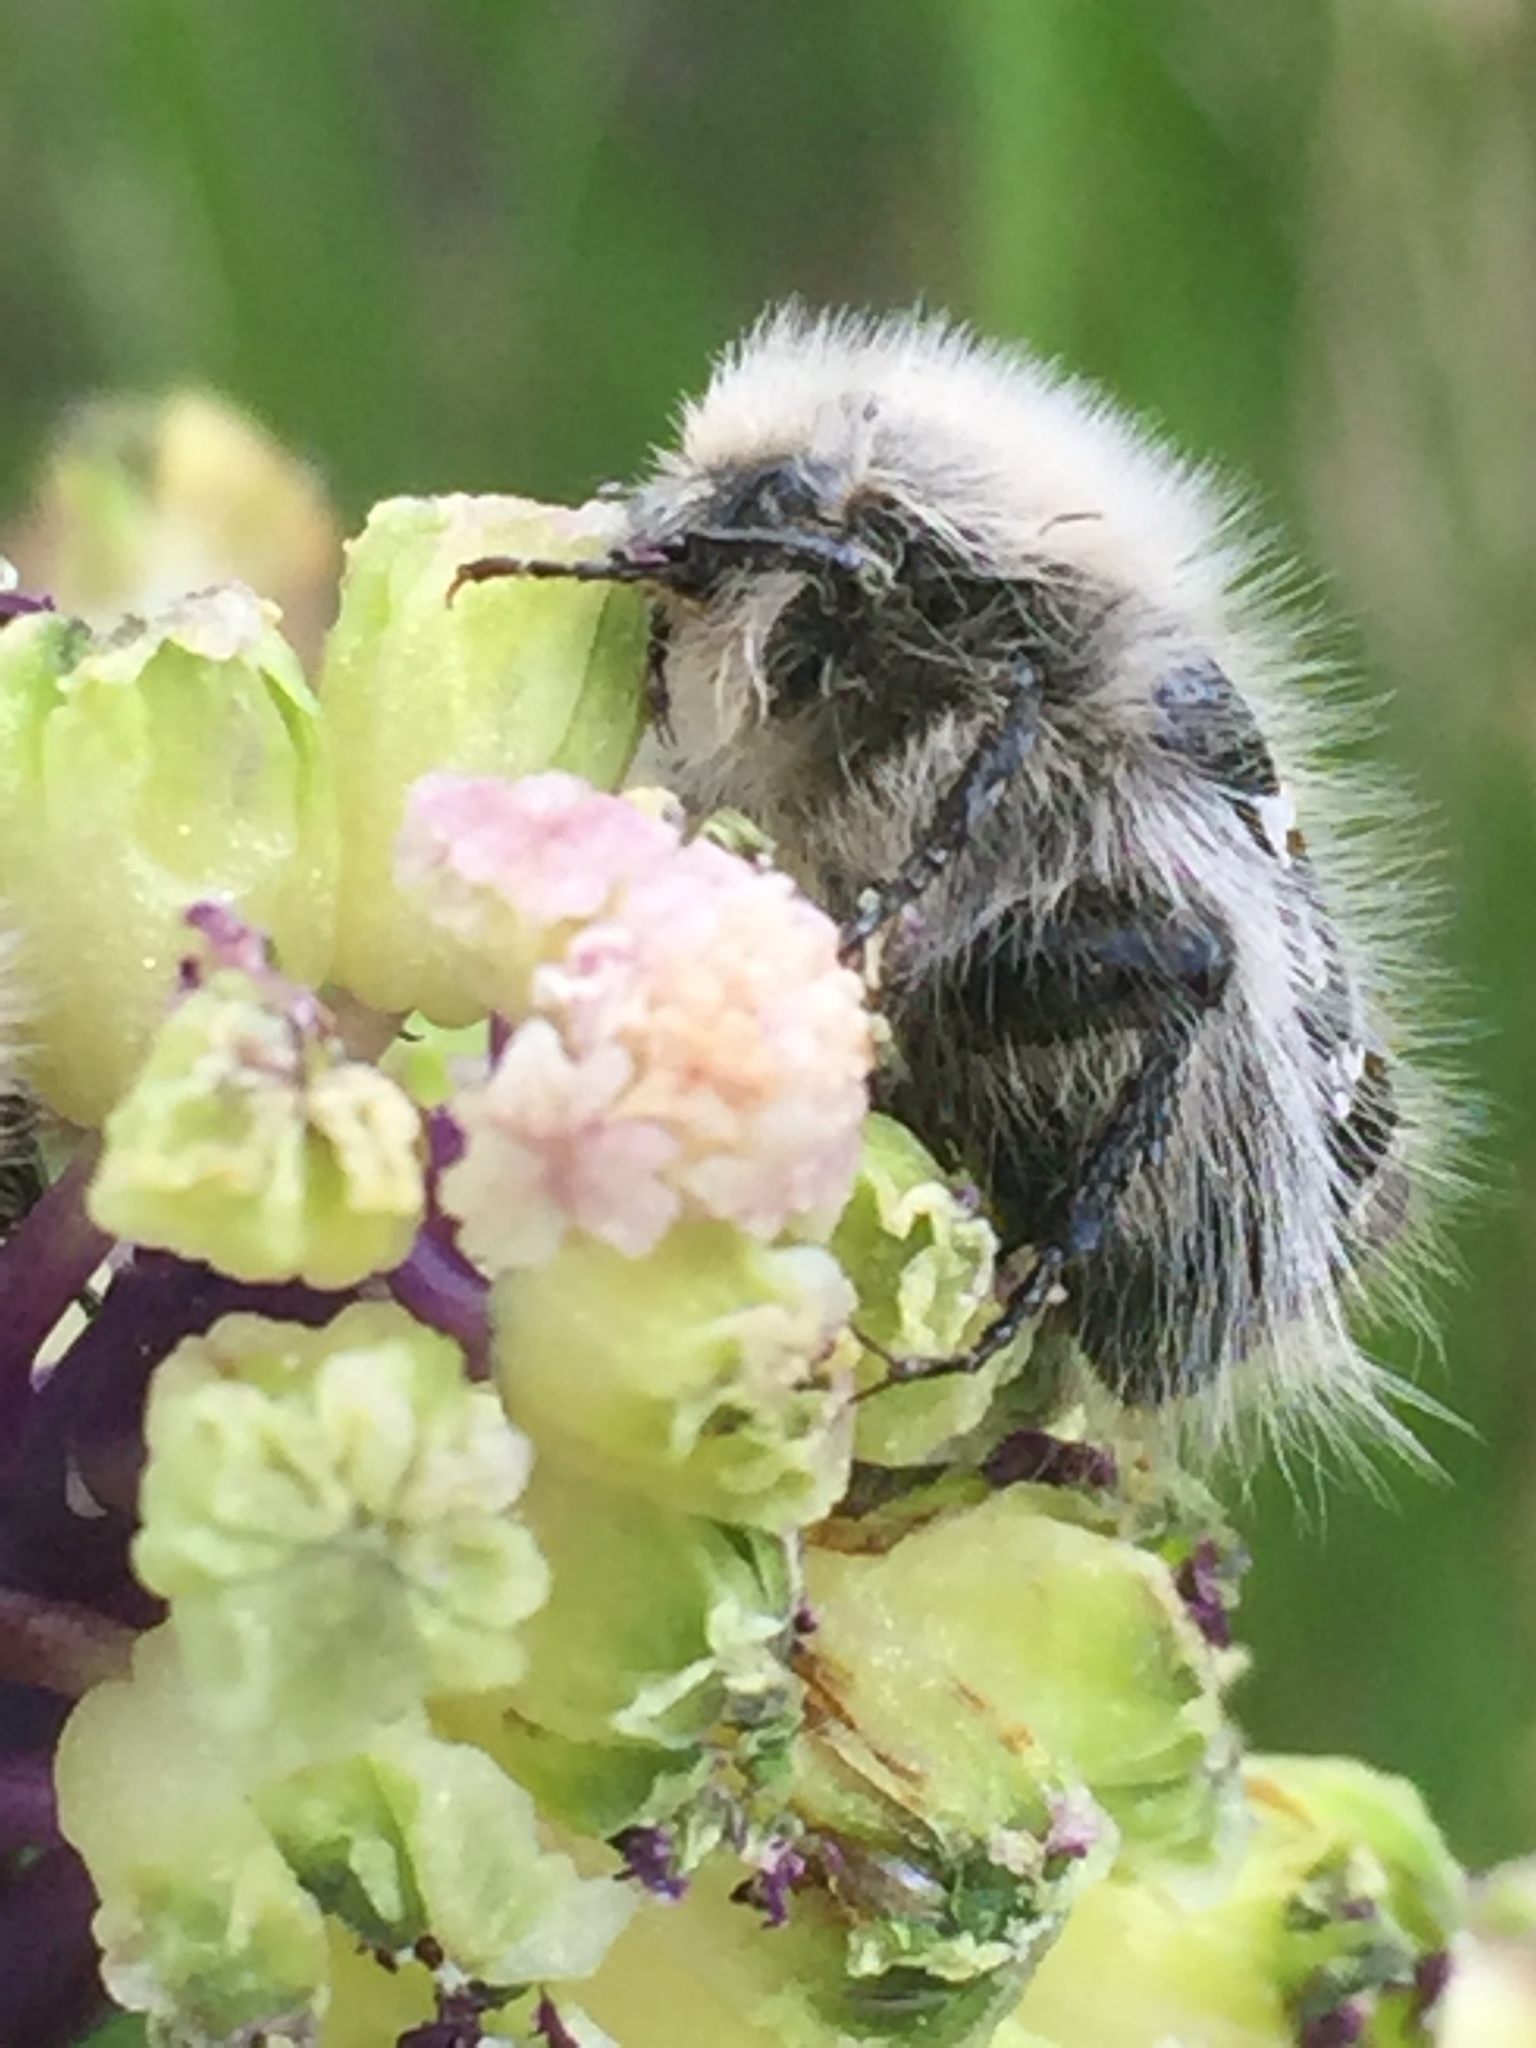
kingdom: Animalia
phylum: Arthropoda
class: Insecta
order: Coleoptera
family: Scarabaeidae
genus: Tropinota
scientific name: Tropinota hirta
